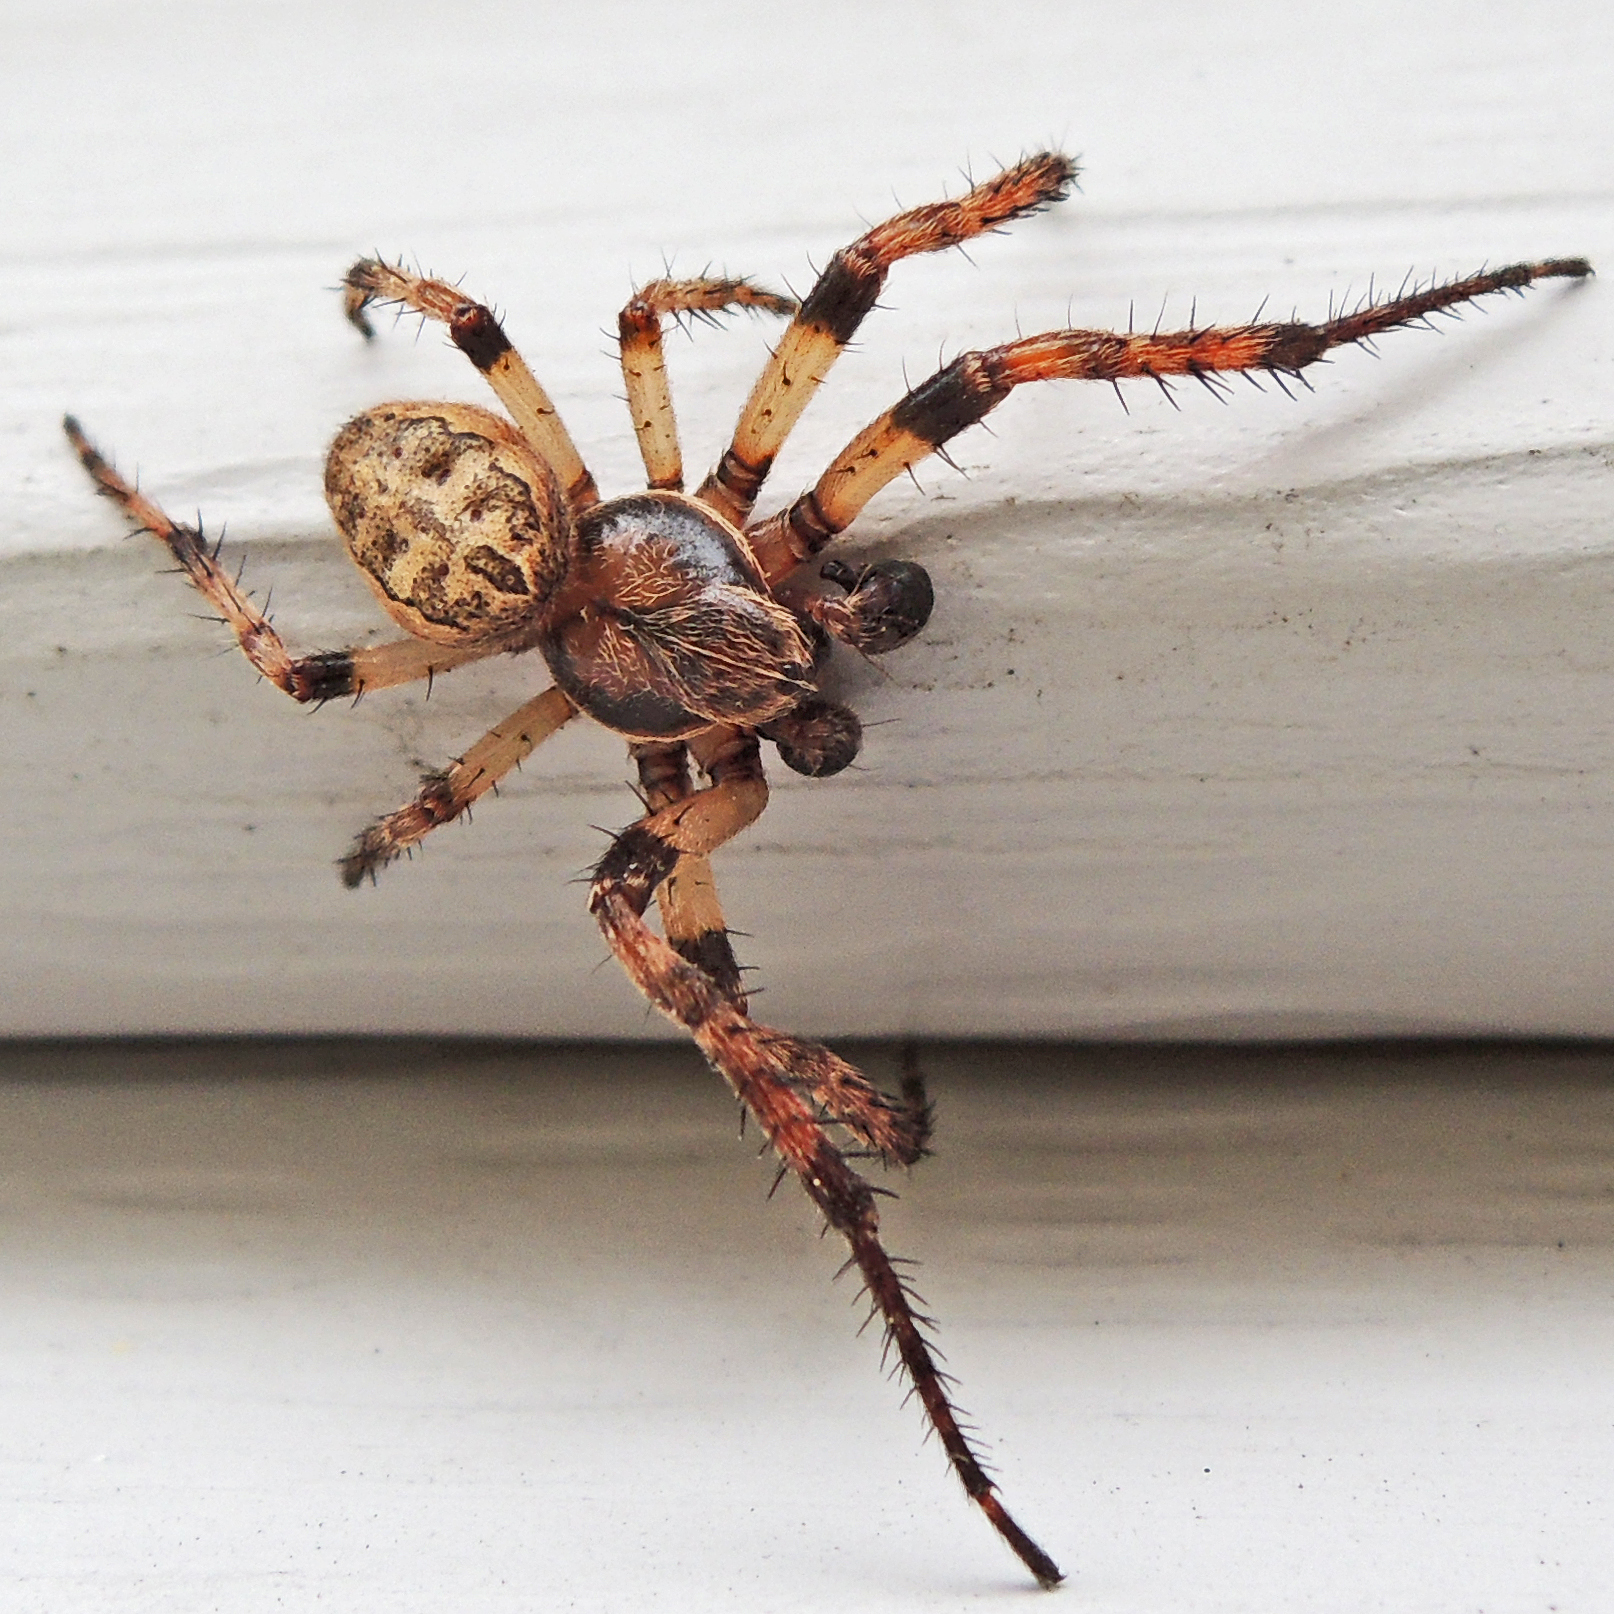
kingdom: Animalia
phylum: Arthropoda
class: Arachnida
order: Araneae
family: Araneidae
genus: Larinioides
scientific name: Larinioides cornutus
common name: Furrow orbweaver
